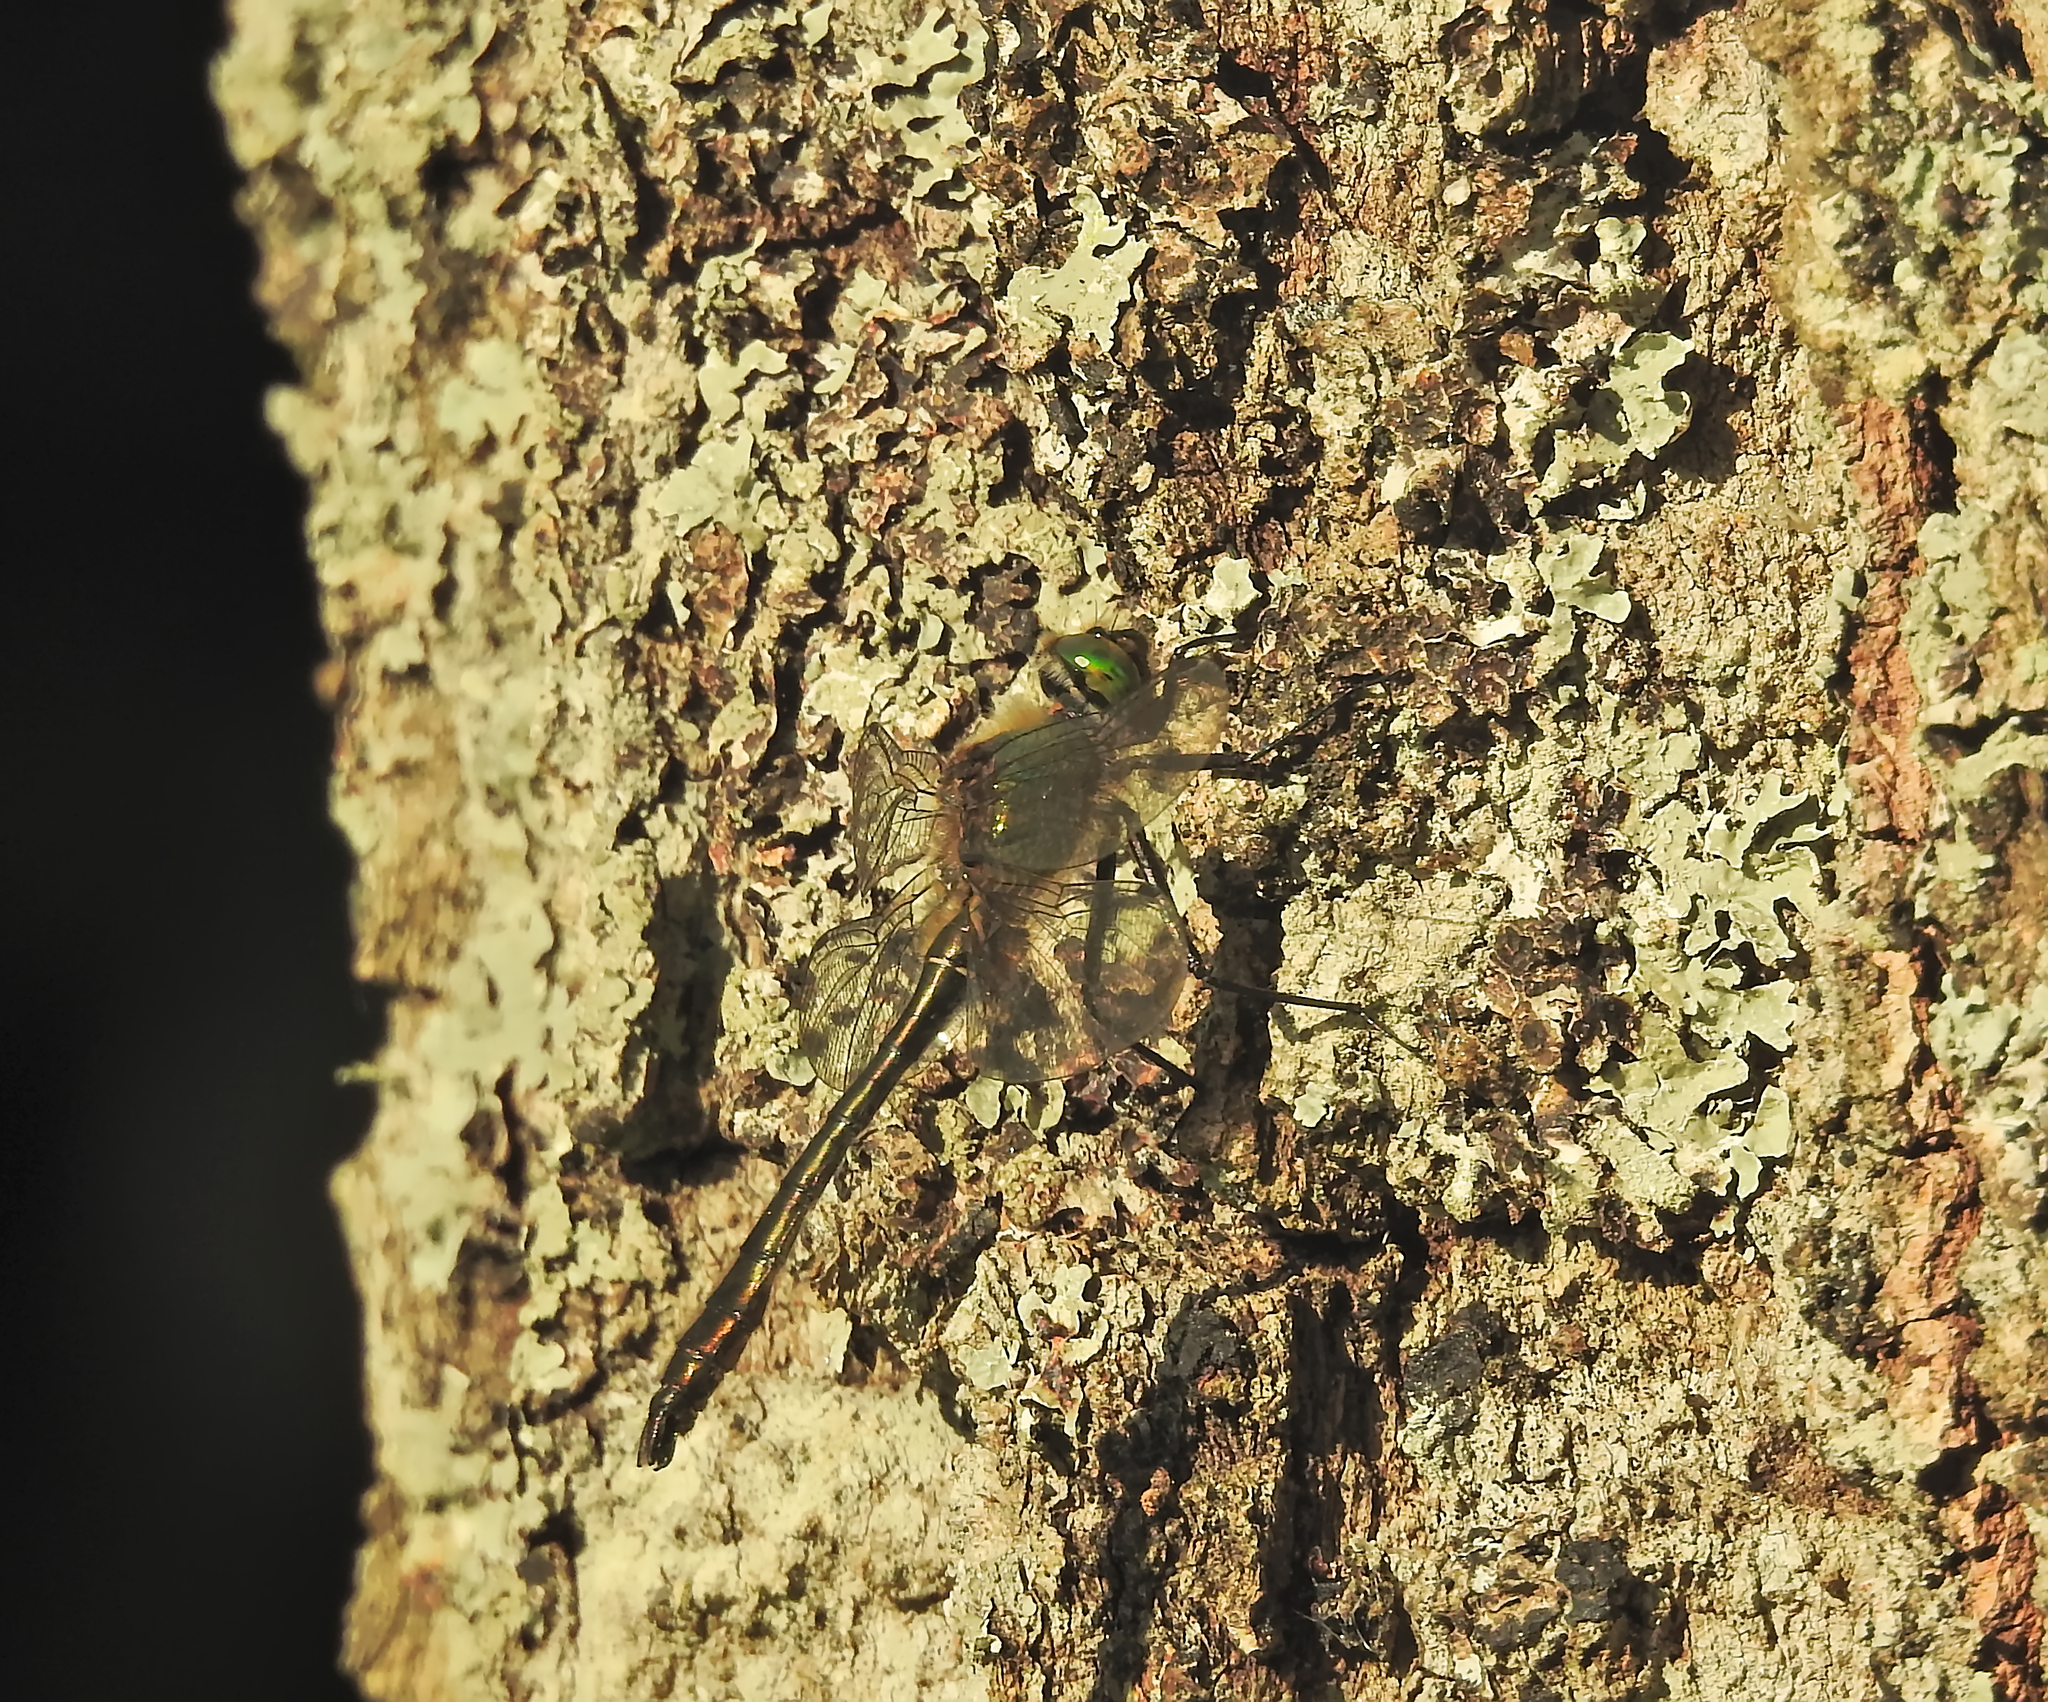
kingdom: Animalia
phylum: Arthropoda
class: Insecta
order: Odonata
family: Corduliidae
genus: Cordulia
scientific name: Cordulia aenea
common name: Downy emerald
